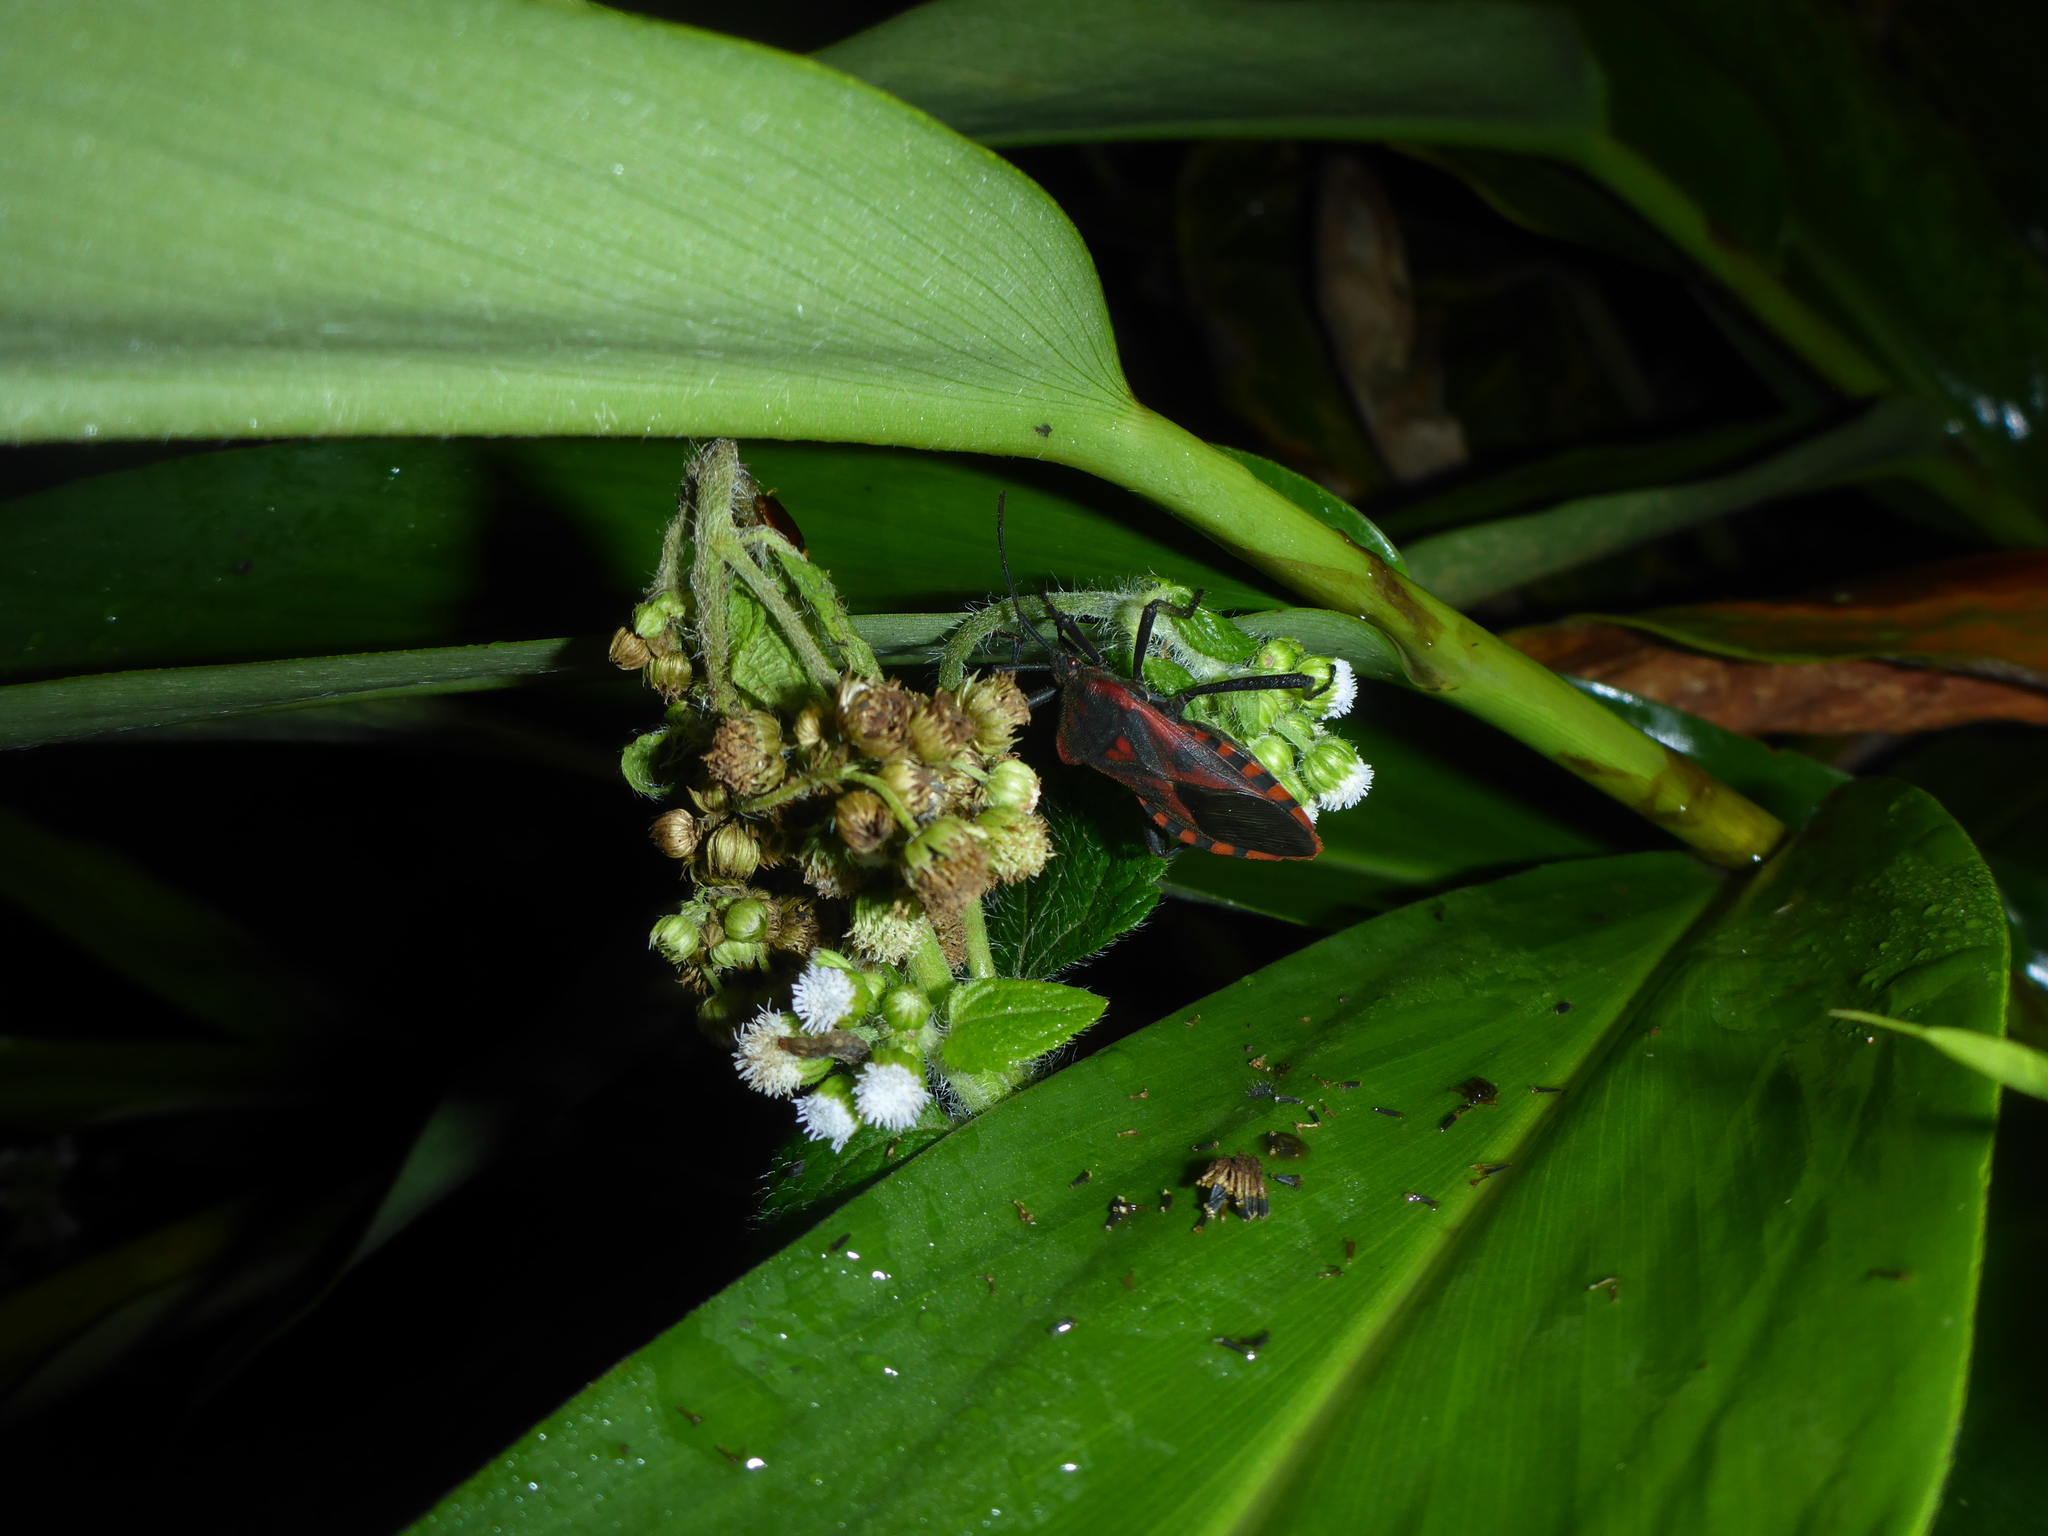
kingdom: Animalia
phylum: Arthropoda
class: Insecta
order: Hemiptera
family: Coreidae
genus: Piezogaster
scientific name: Piezogaster rubropictus
